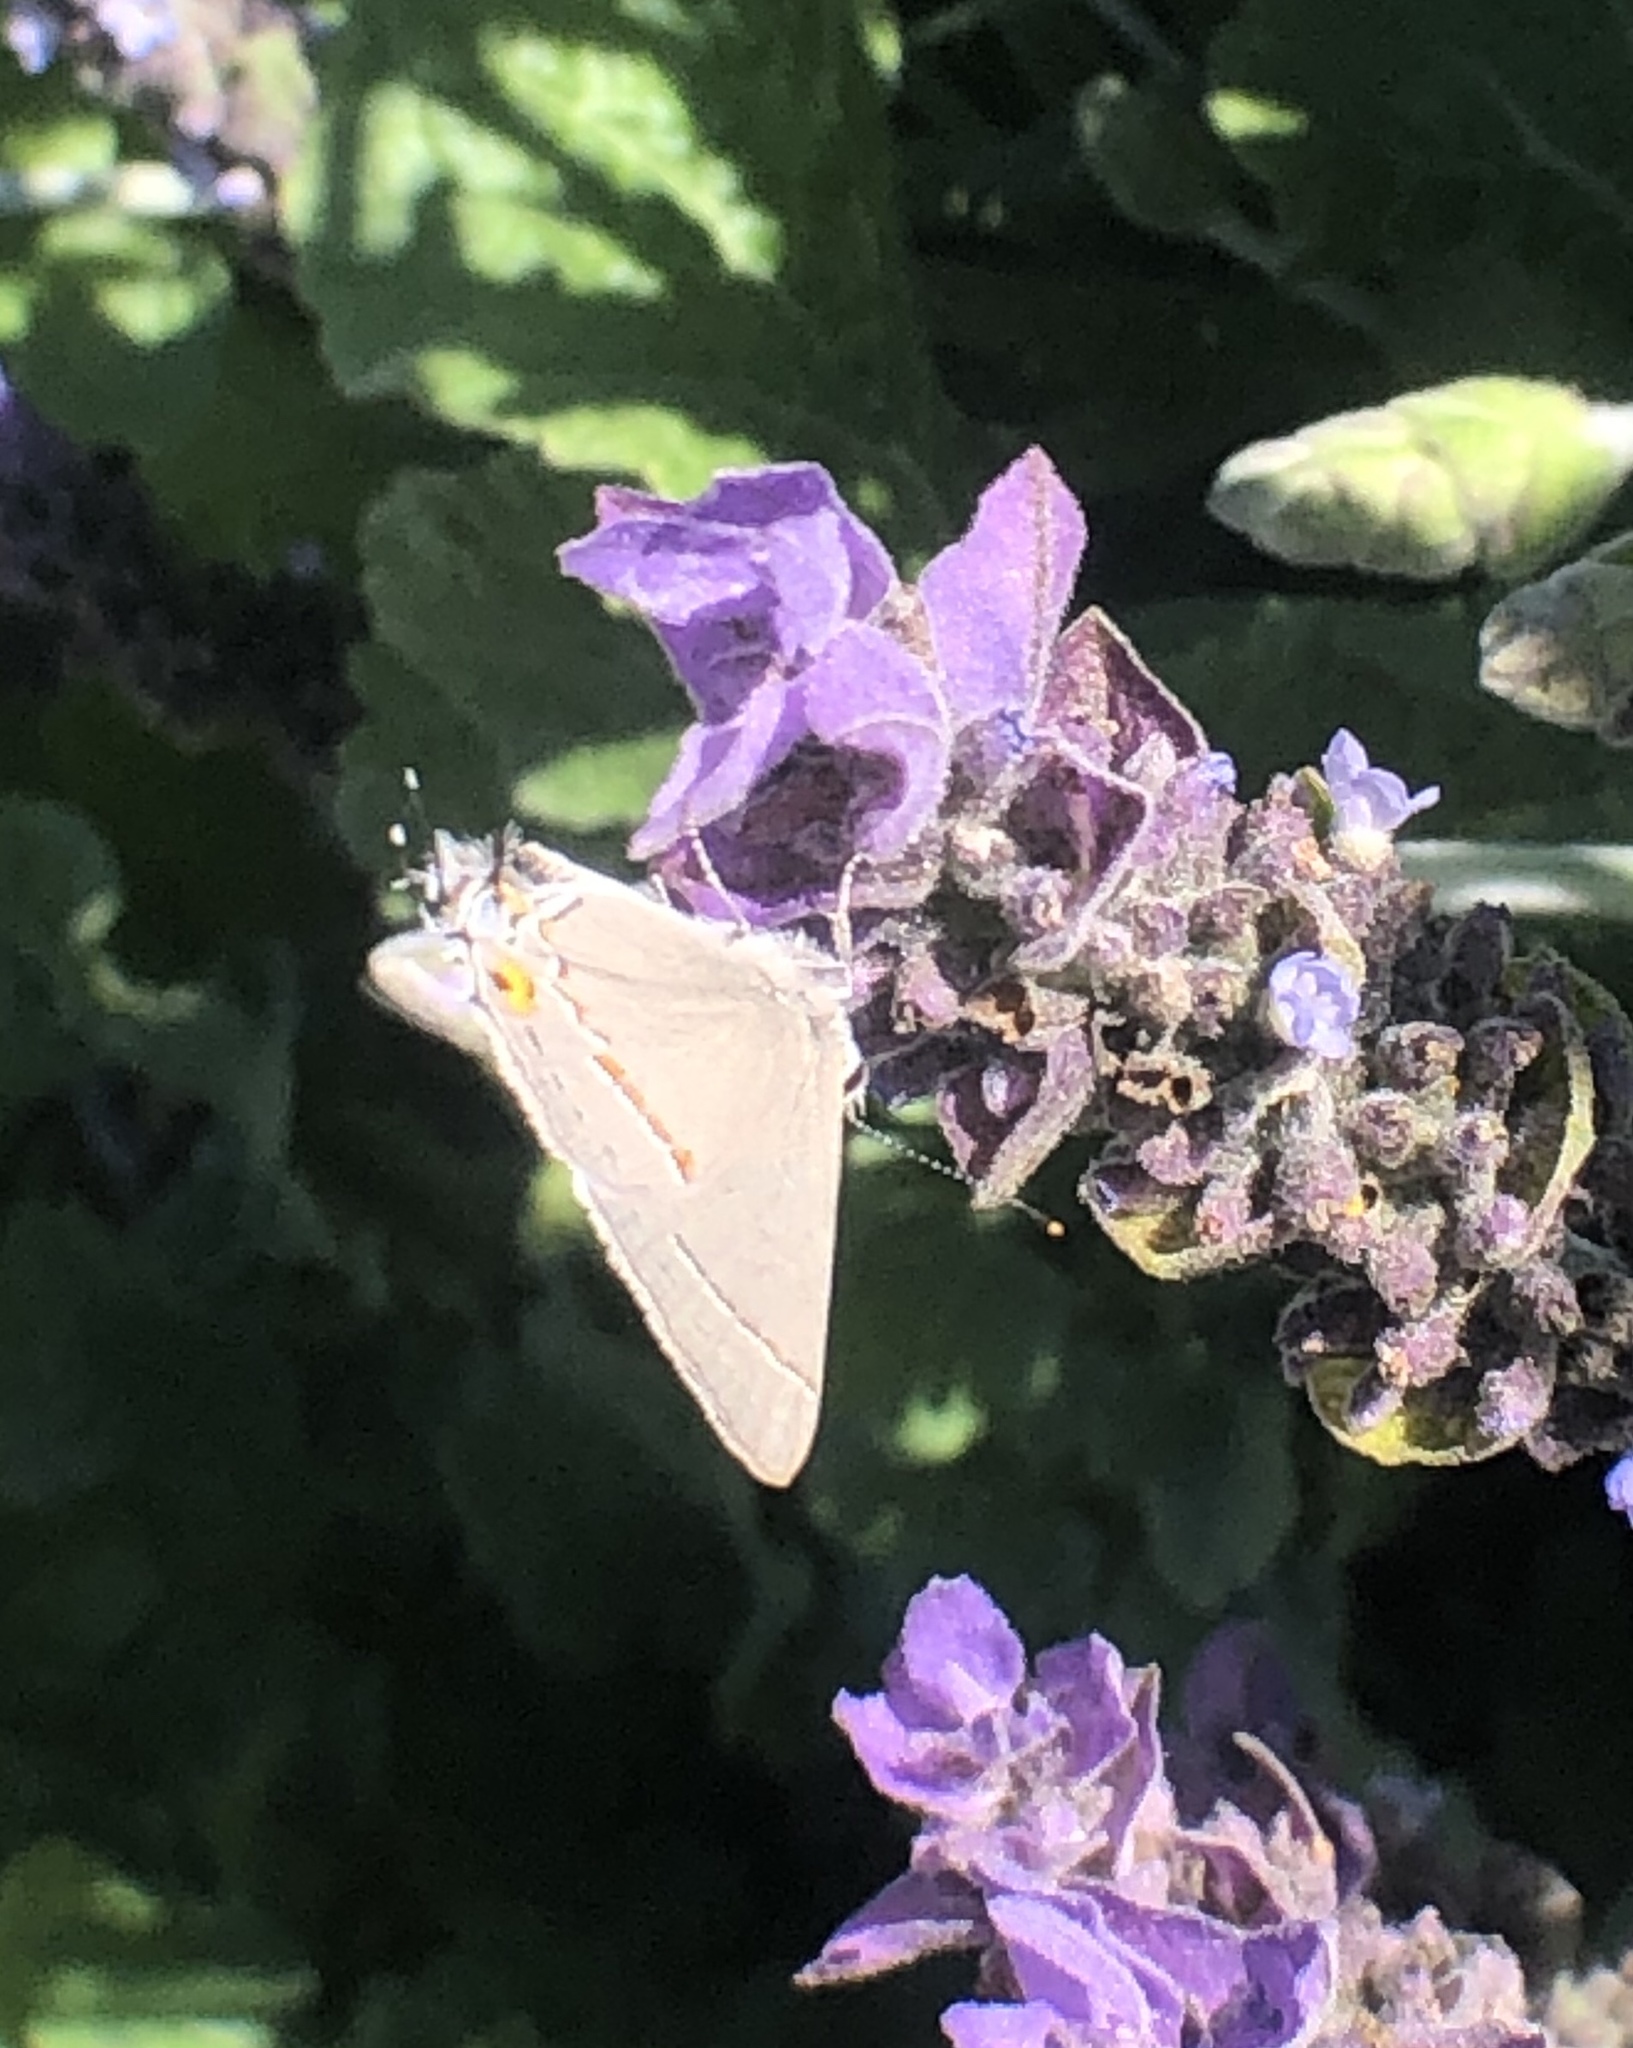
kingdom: Animalia
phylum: Arthropoda
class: Insecta
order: Lepidoptera
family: Lycaenidae
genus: Strymon
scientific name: Strymon melinus
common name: Gray hairstreak
